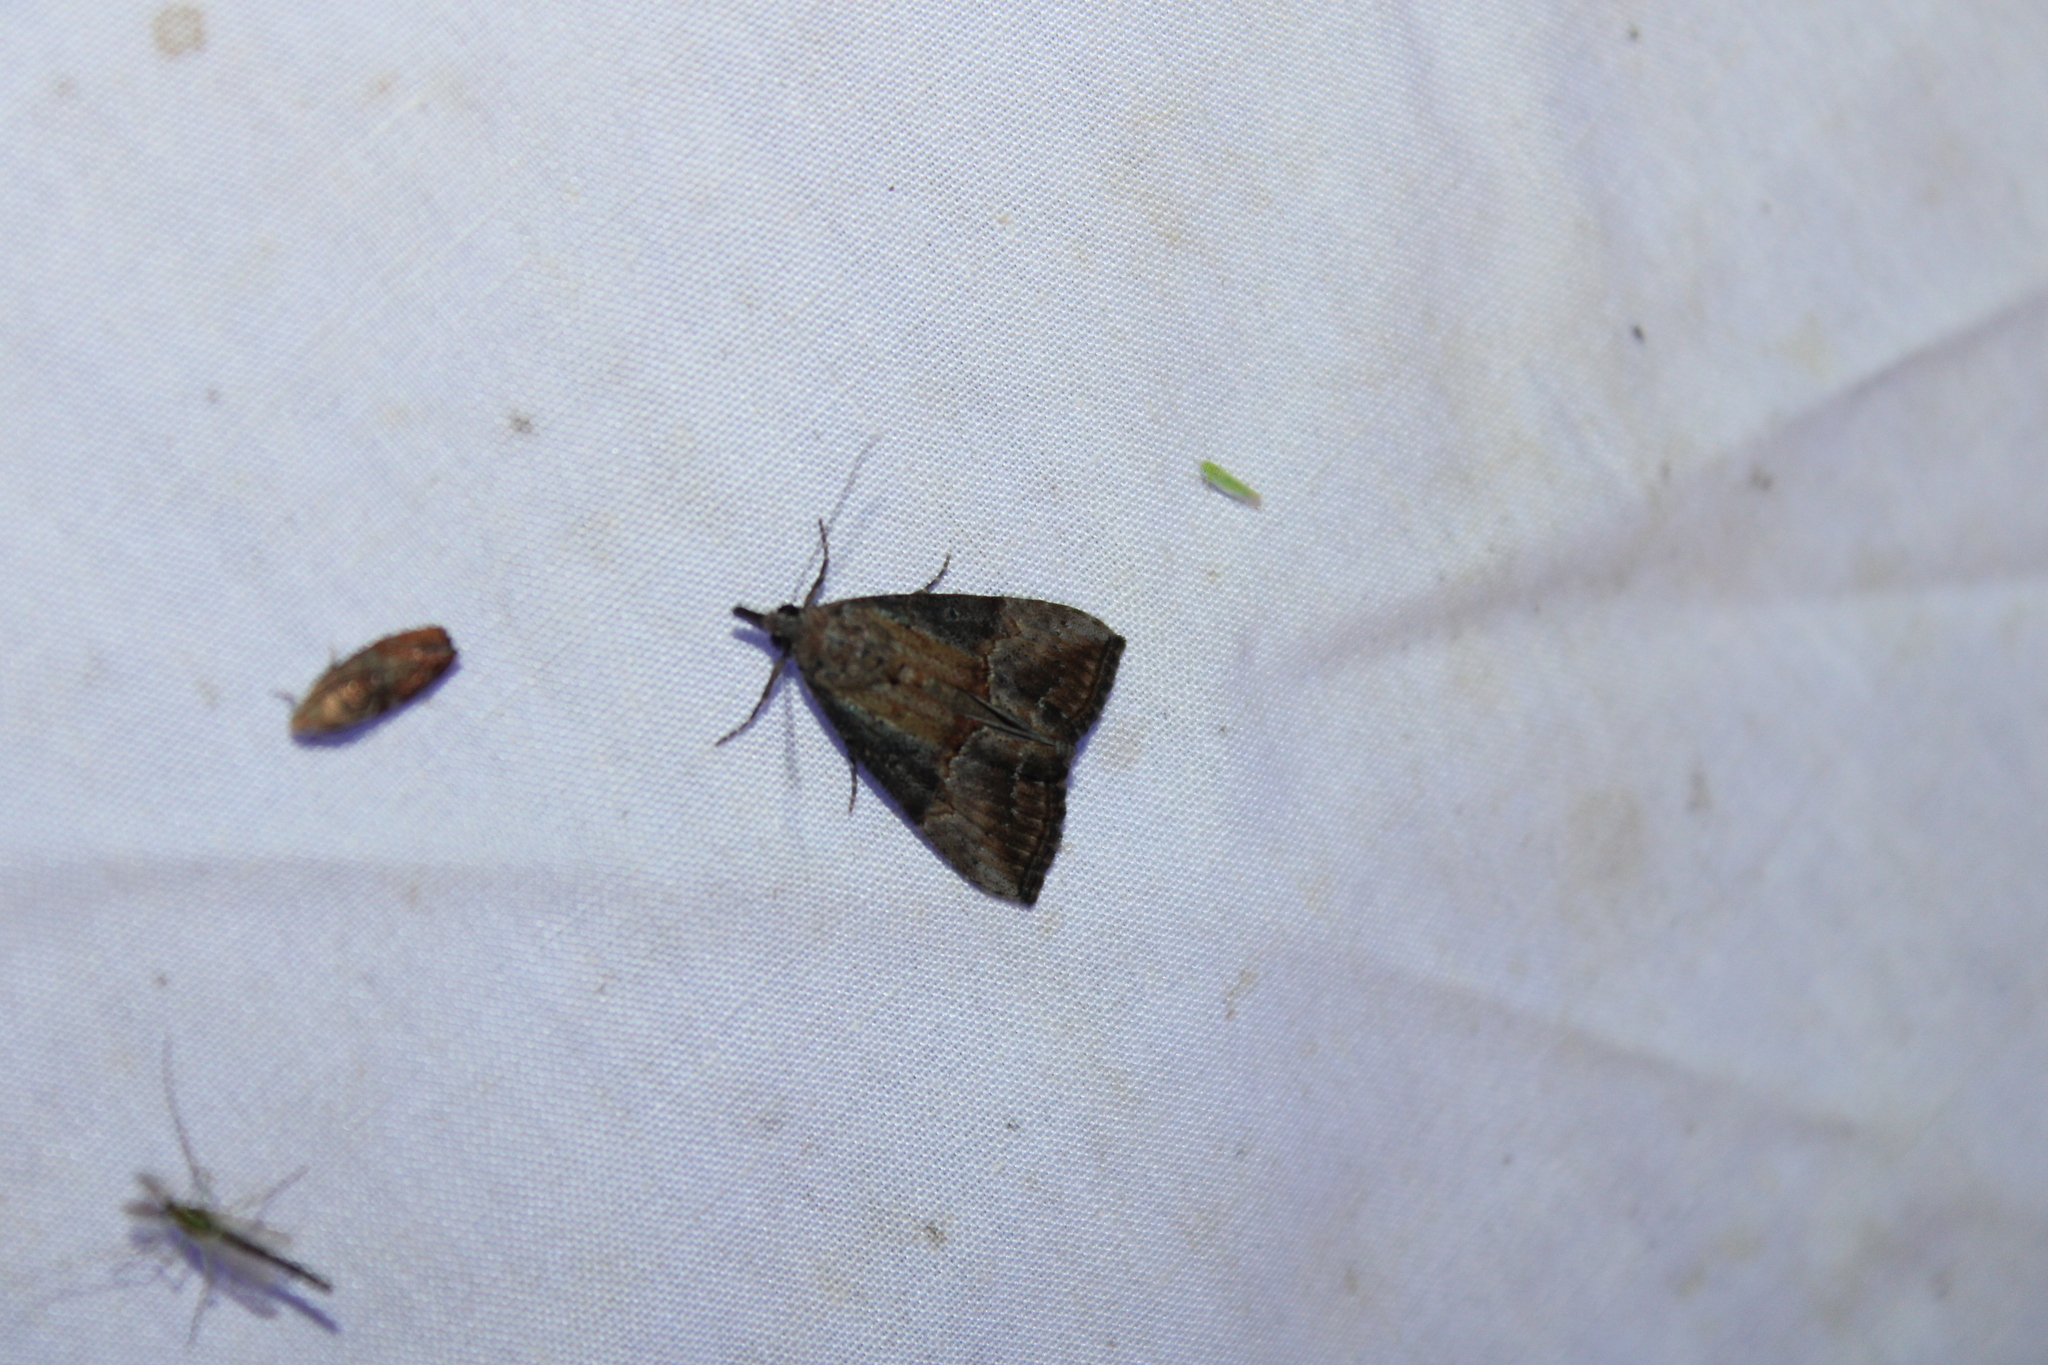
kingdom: Animalia
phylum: Arthropoda
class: Insecta
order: Lepidoptera
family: Erebidae
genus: Hypena
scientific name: Hypena scabra
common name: Green cloverworm
